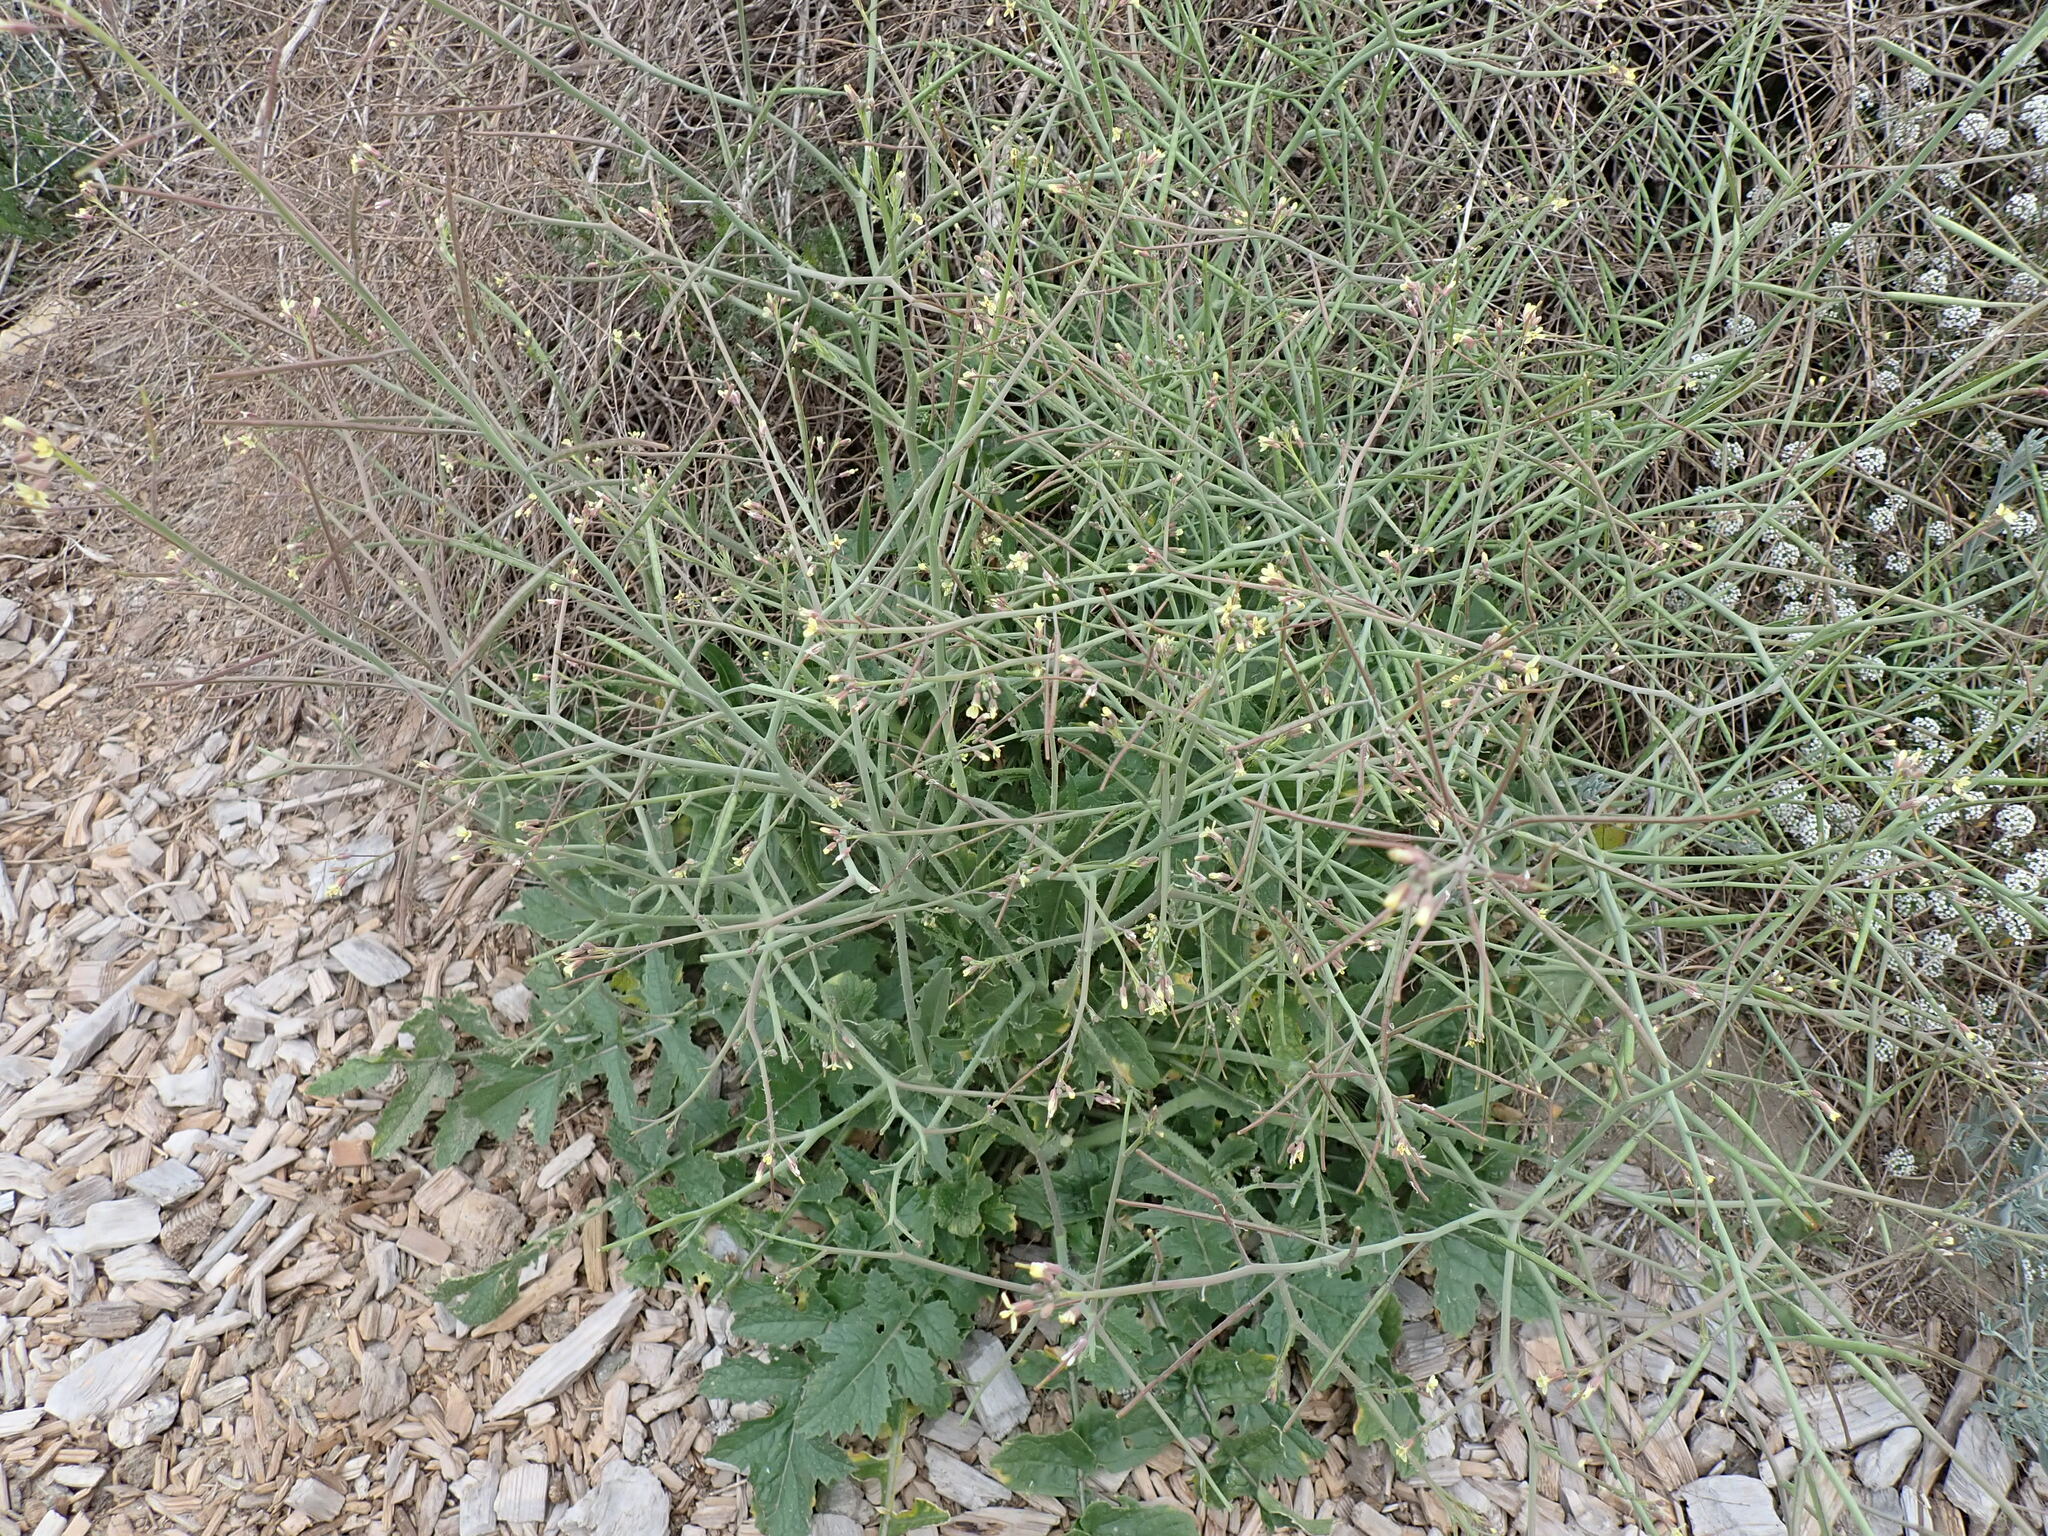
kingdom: Plantae
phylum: Tracheophyta
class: Magnoliopsida
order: Brassicales
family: Brassicaceae
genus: Sisymbrium
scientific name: Sisymbrium officinale
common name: Hedge mustard
